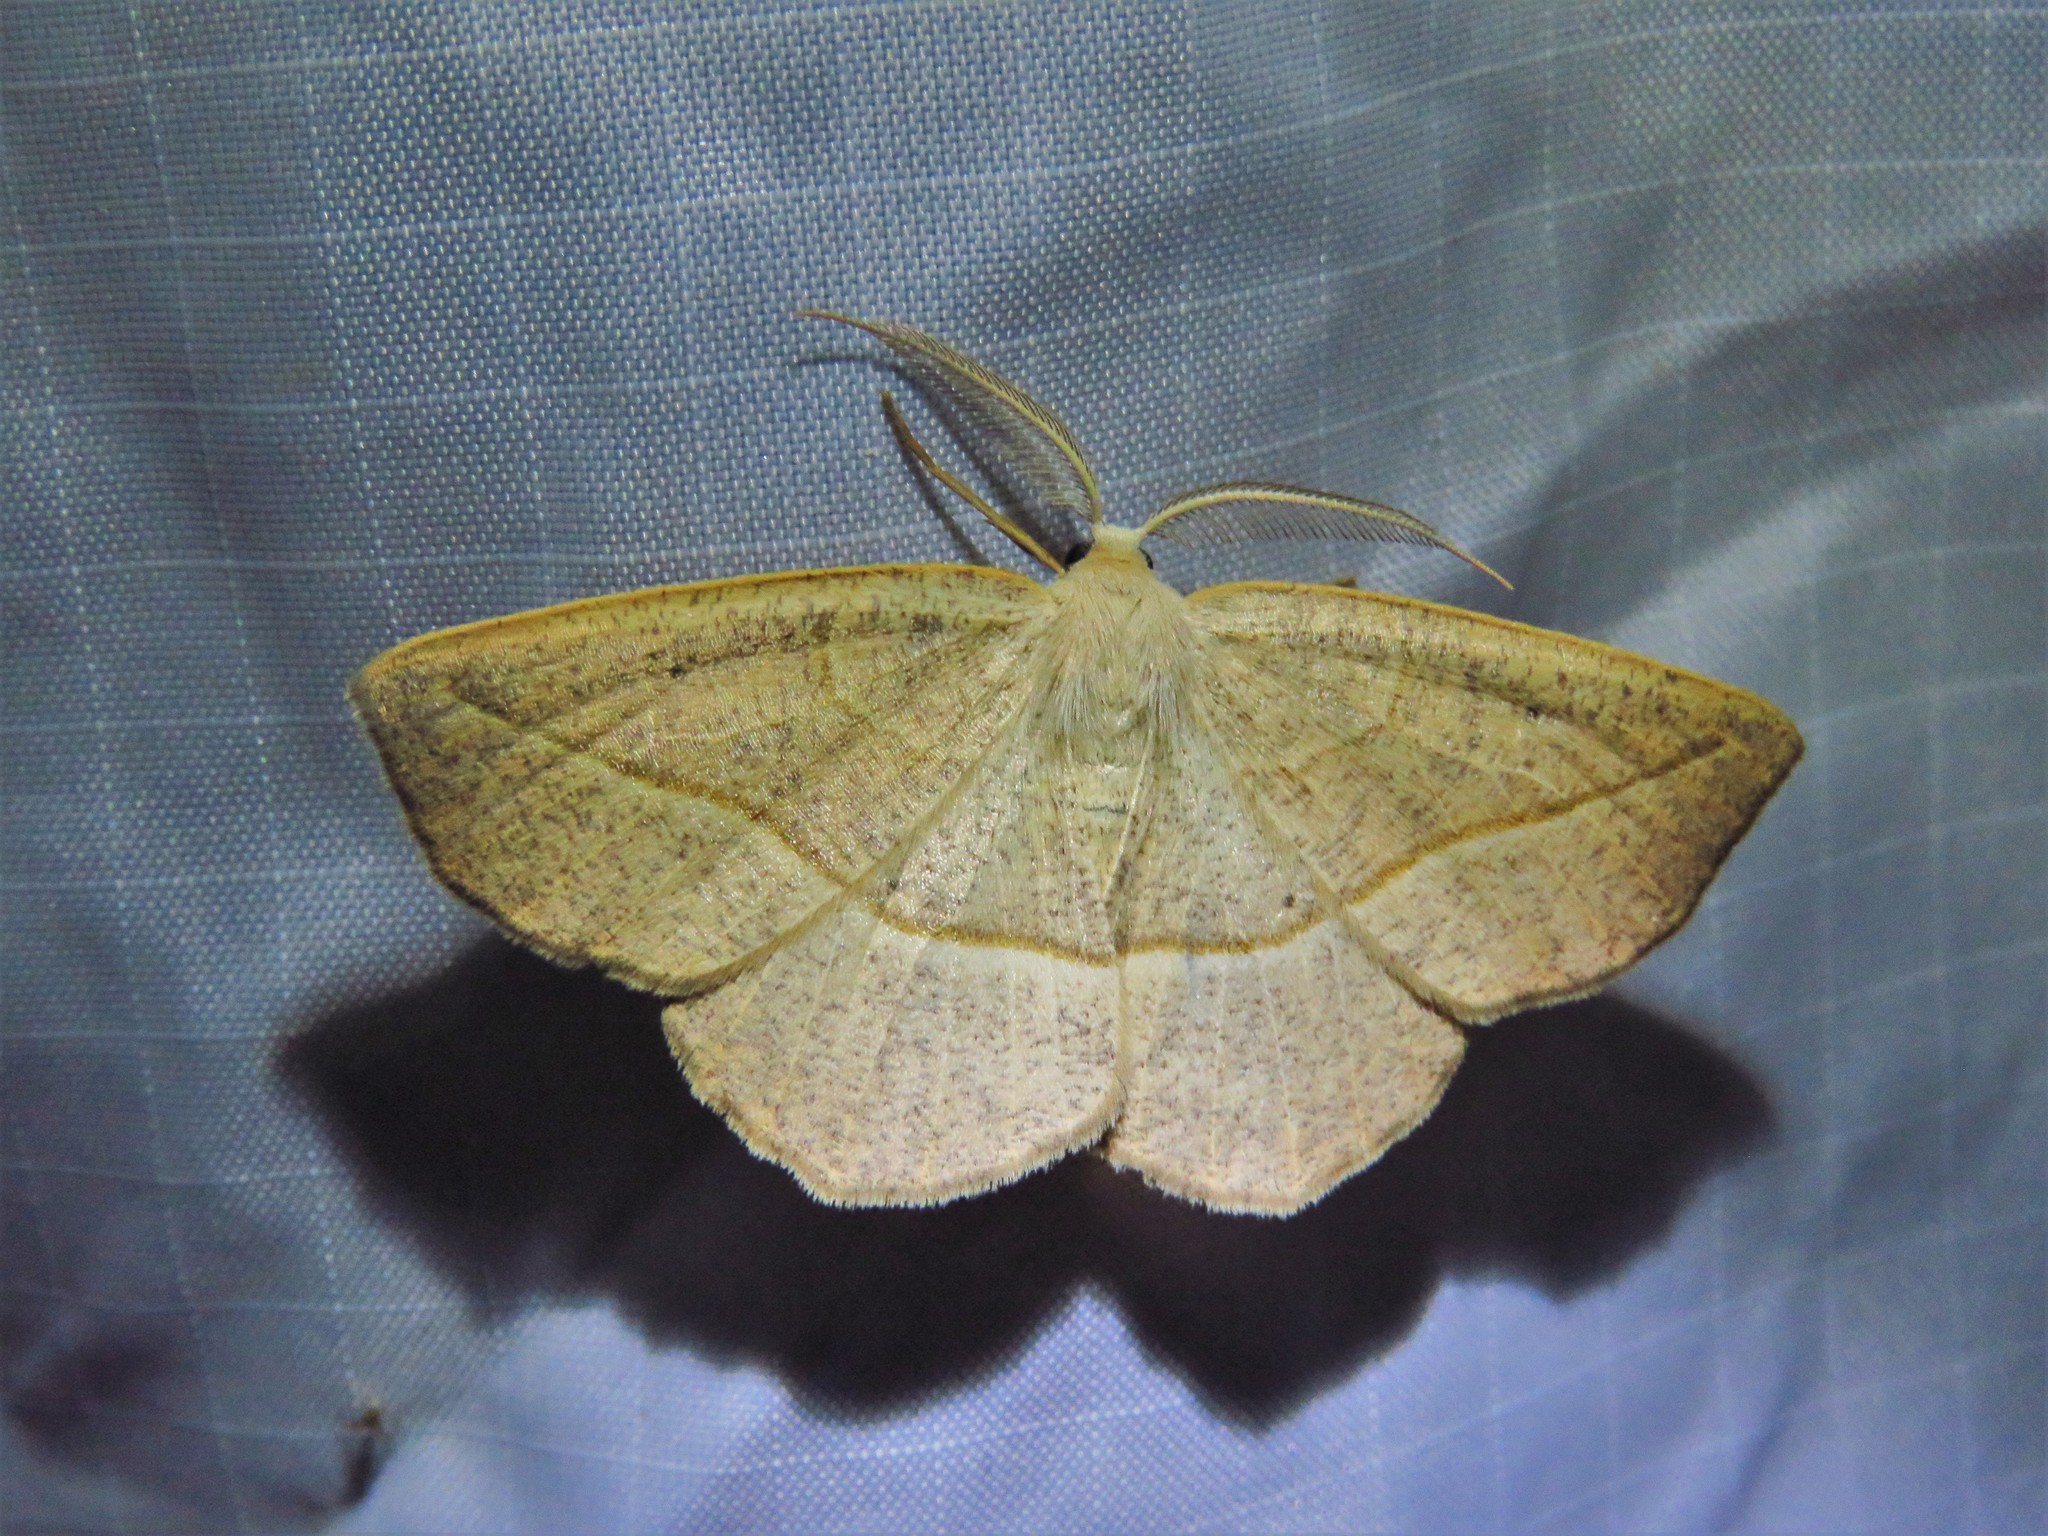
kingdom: Animalia
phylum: Arthropoda
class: Insecta
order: Lepidoptera
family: Geometridae
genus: Eusarca
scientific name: Eusarca confusaria
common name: Confused eusarca
